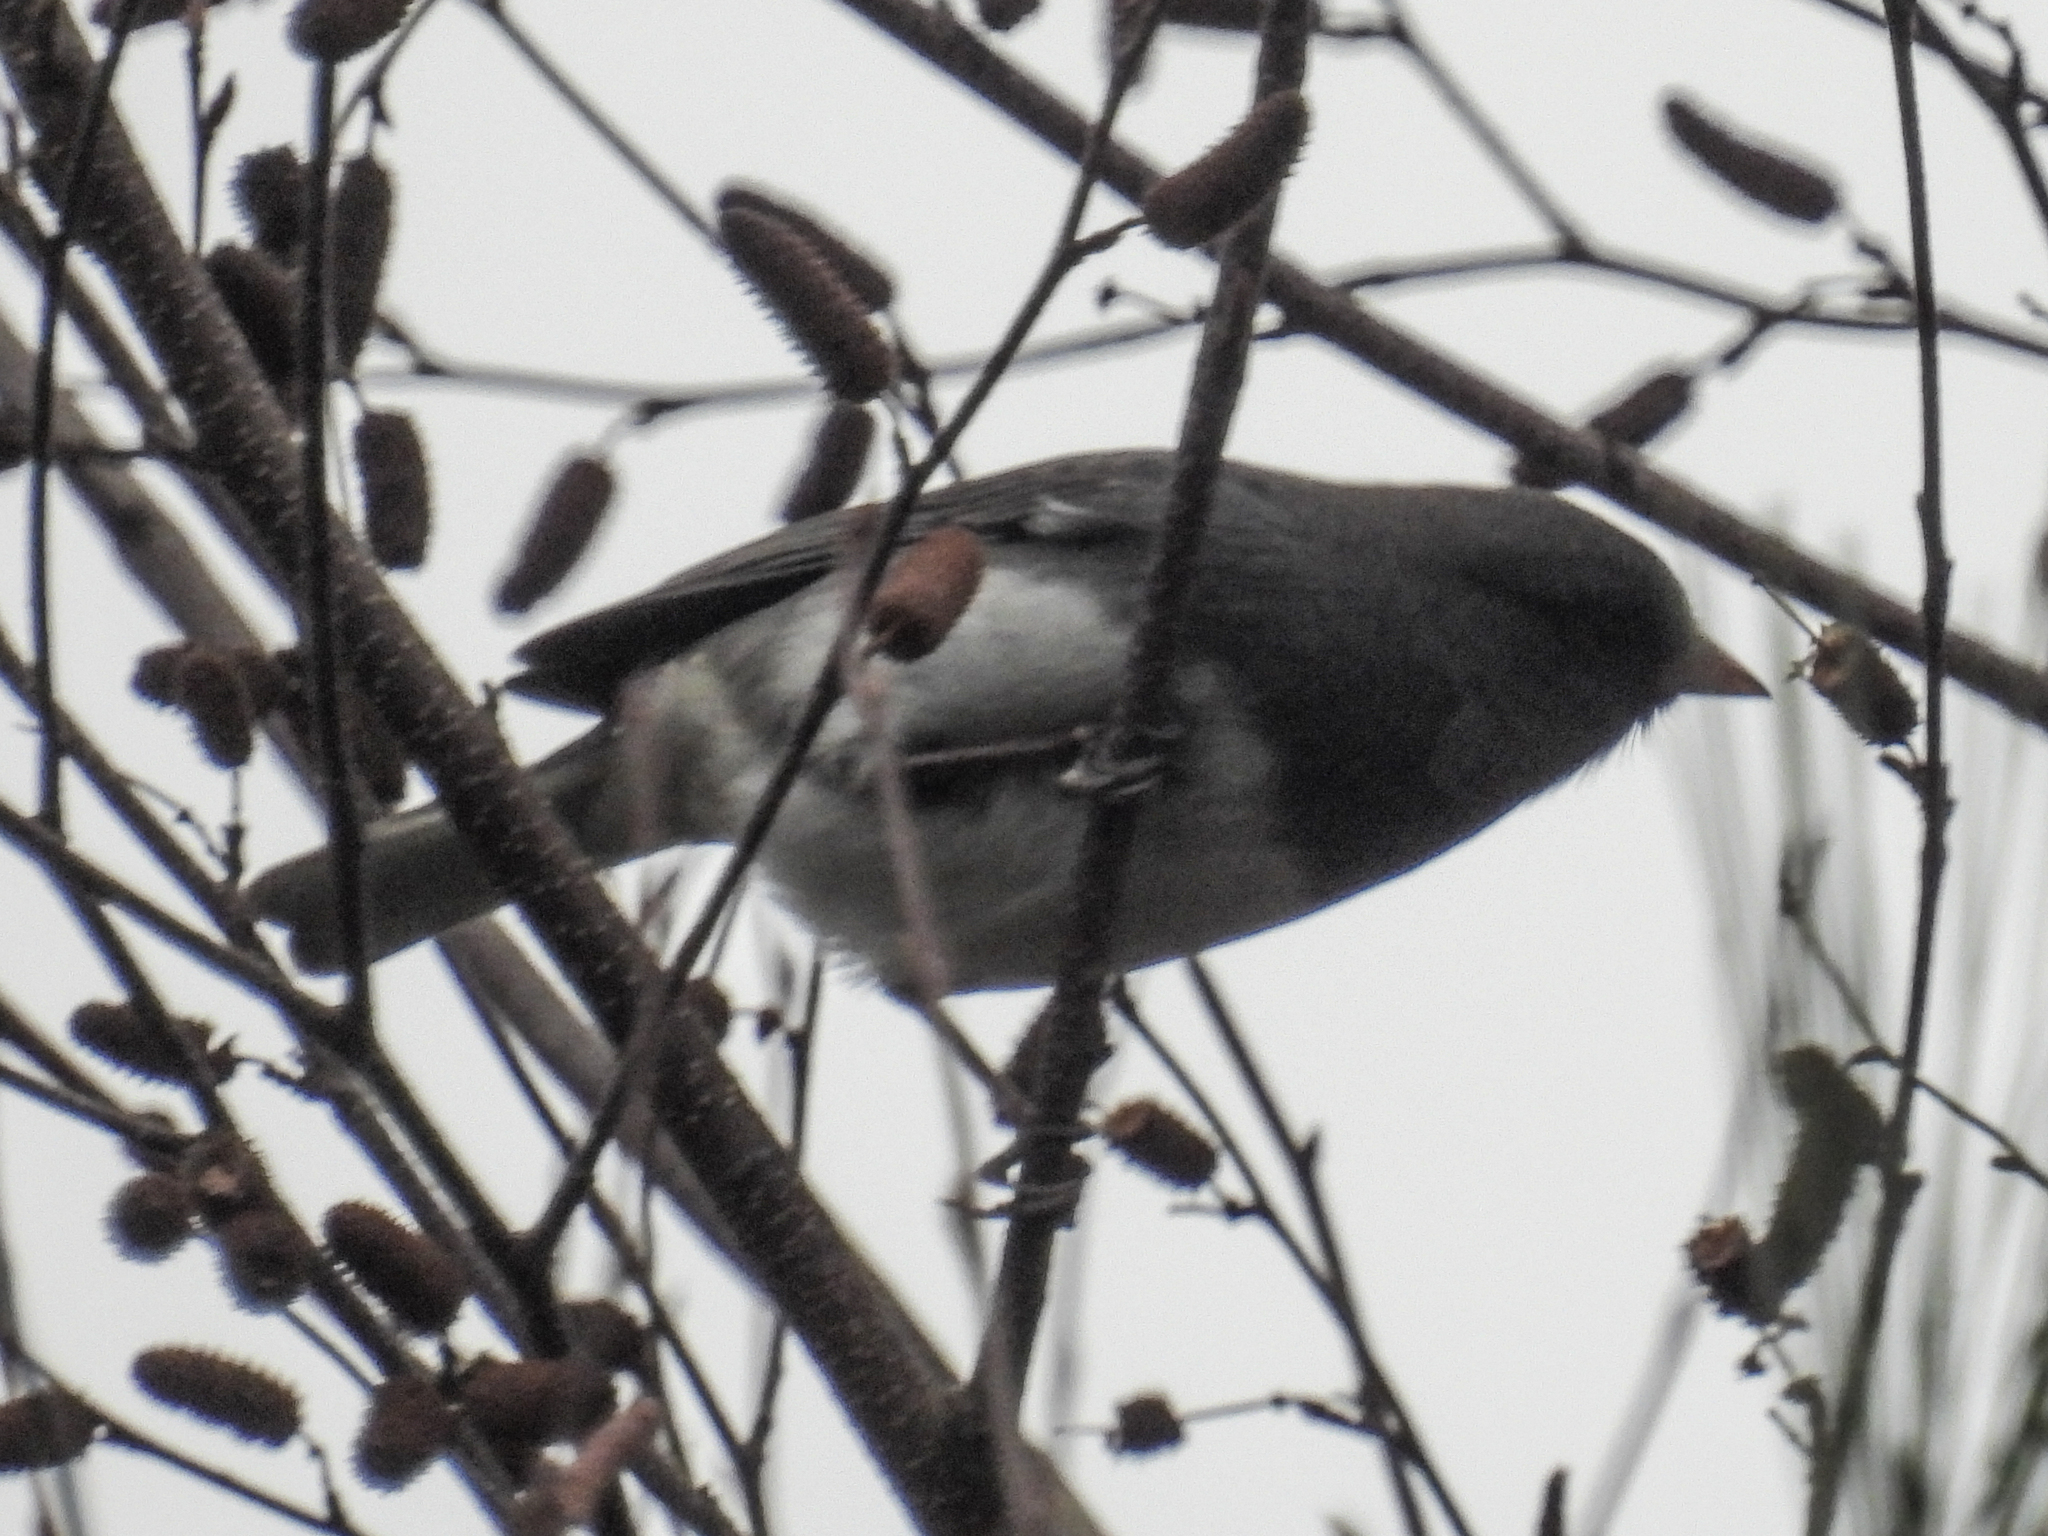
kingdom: Animalia
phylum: Chordata
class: Aves
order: Passeriformes
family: Passerellidae
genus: Junco
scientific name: Junco hyemalis
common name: Dark-eyed junco
